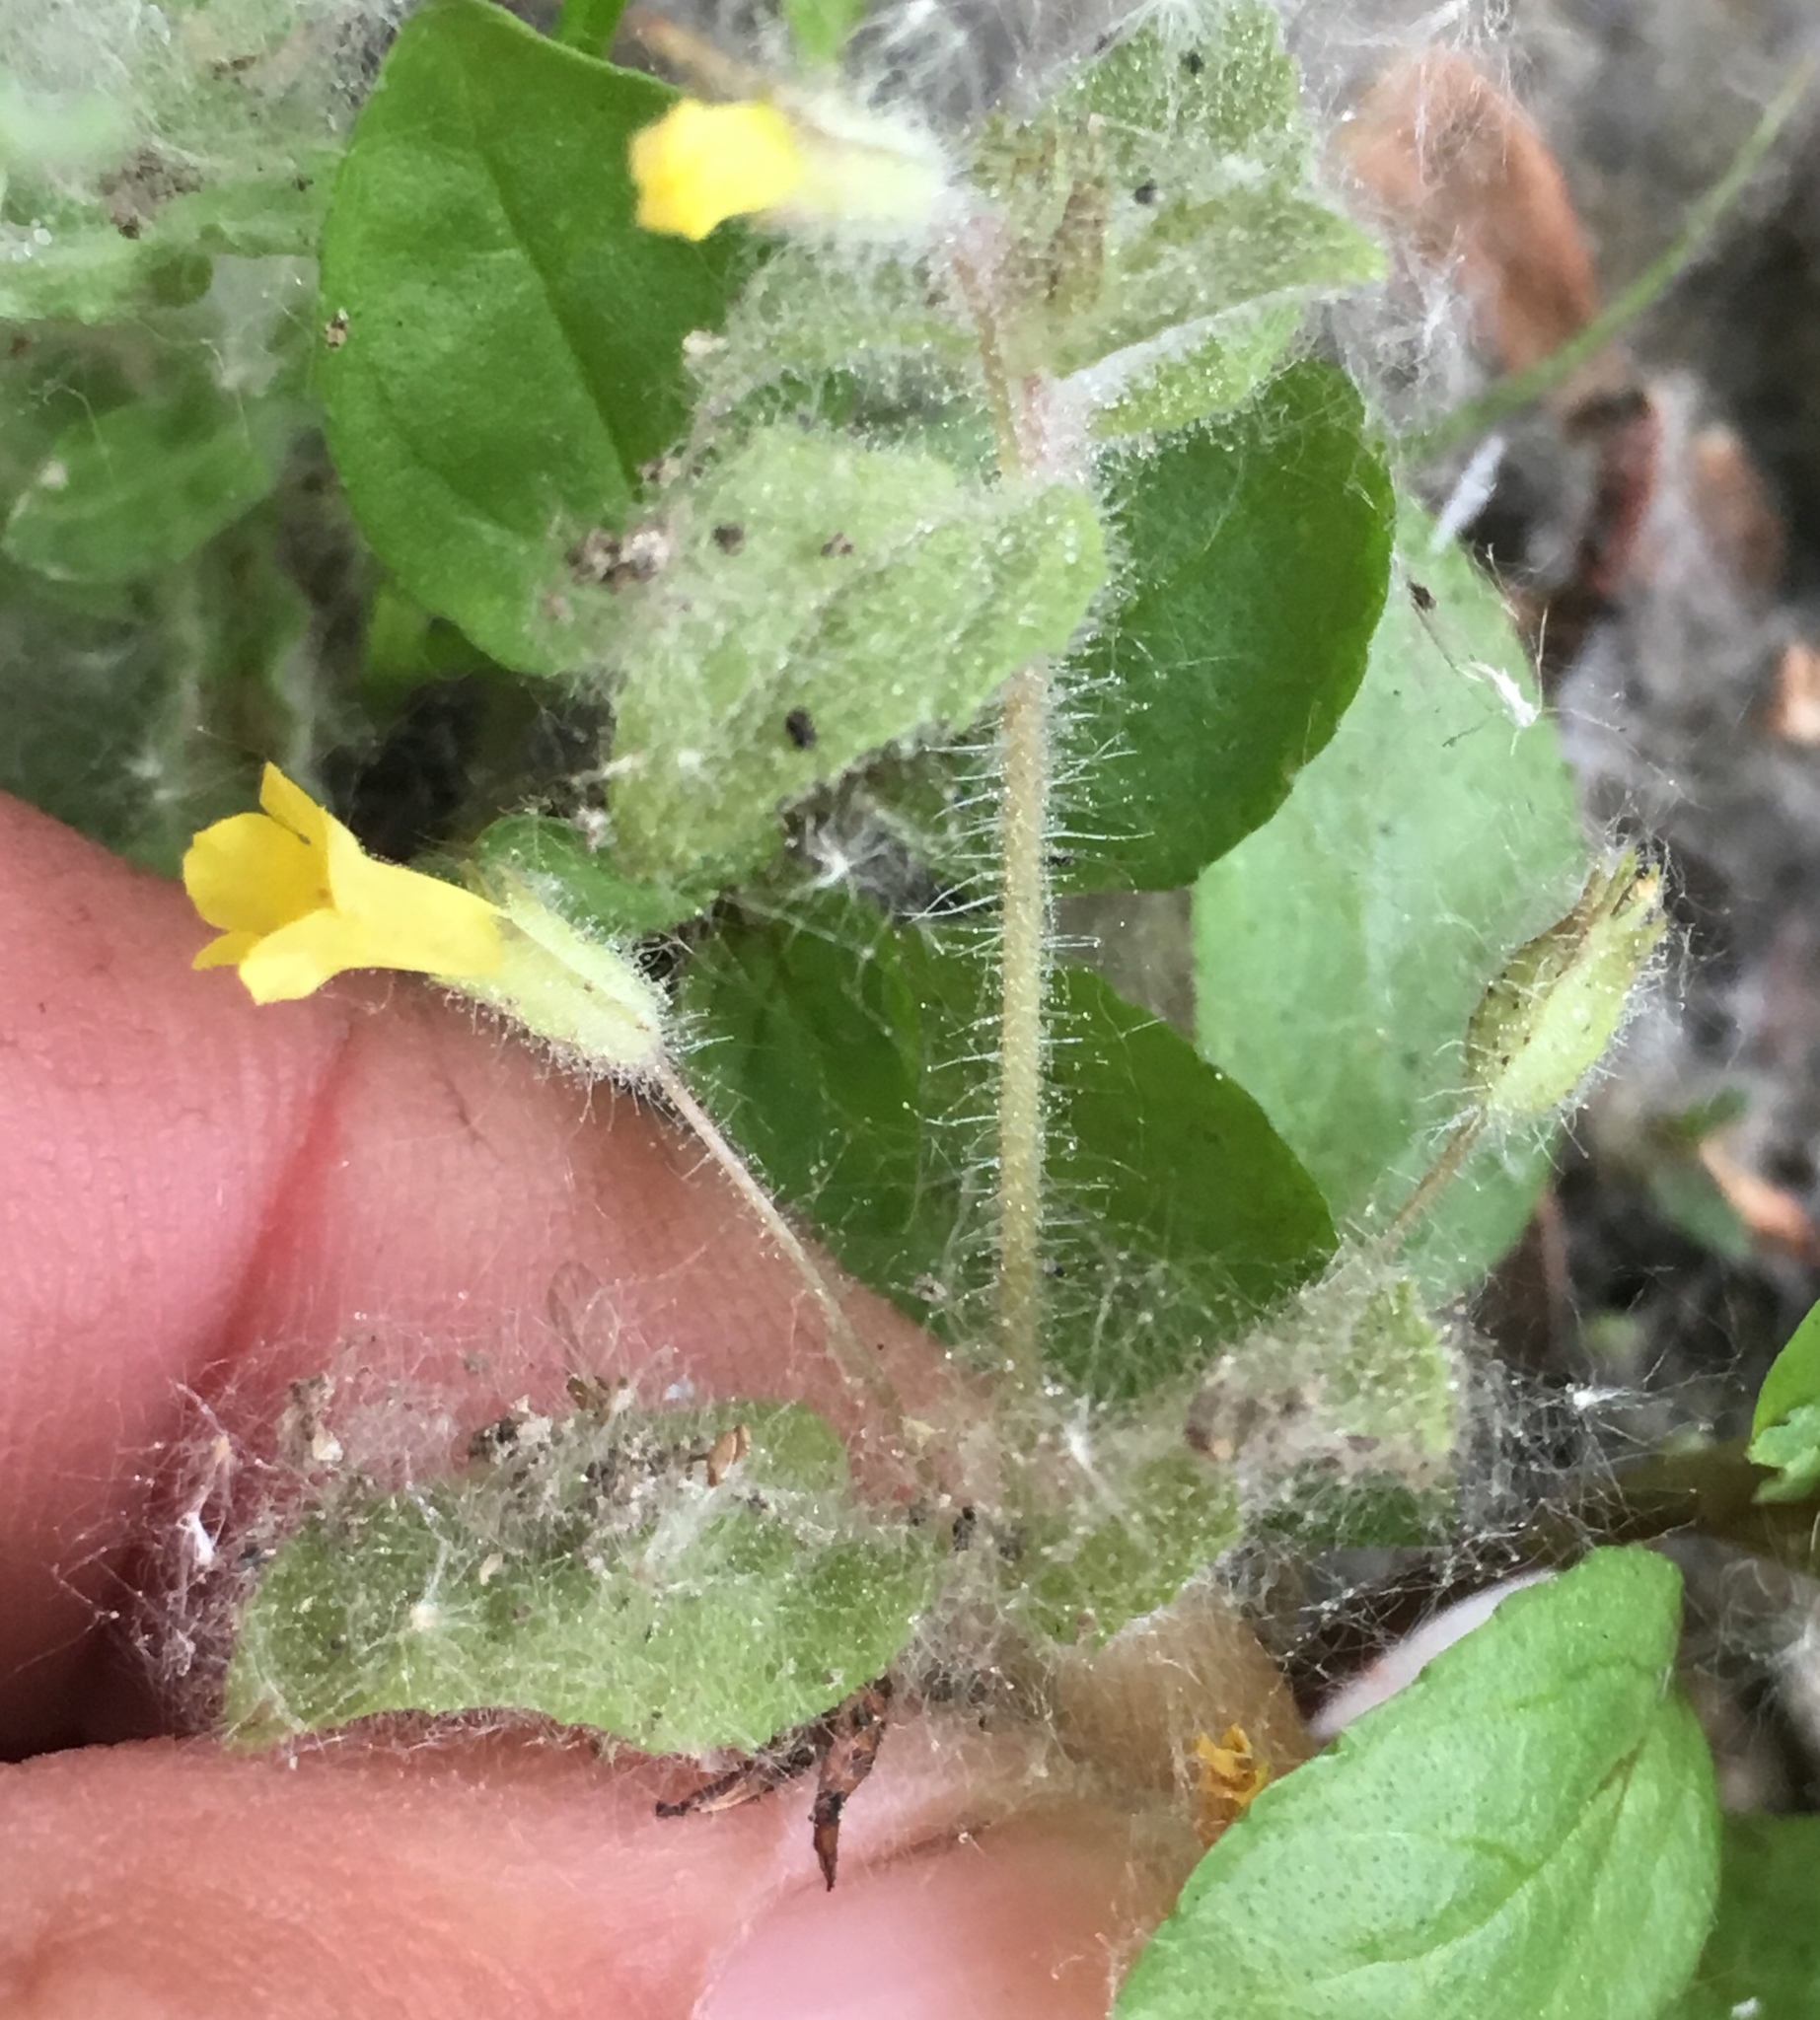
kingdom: Plantae
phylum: Tracheophyta
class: Magnoliopsida
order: Lamiales
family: Phrymaceae
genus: Erythranthe
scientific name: Erythranthe floribunda
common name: Floriferous monkeyflower
